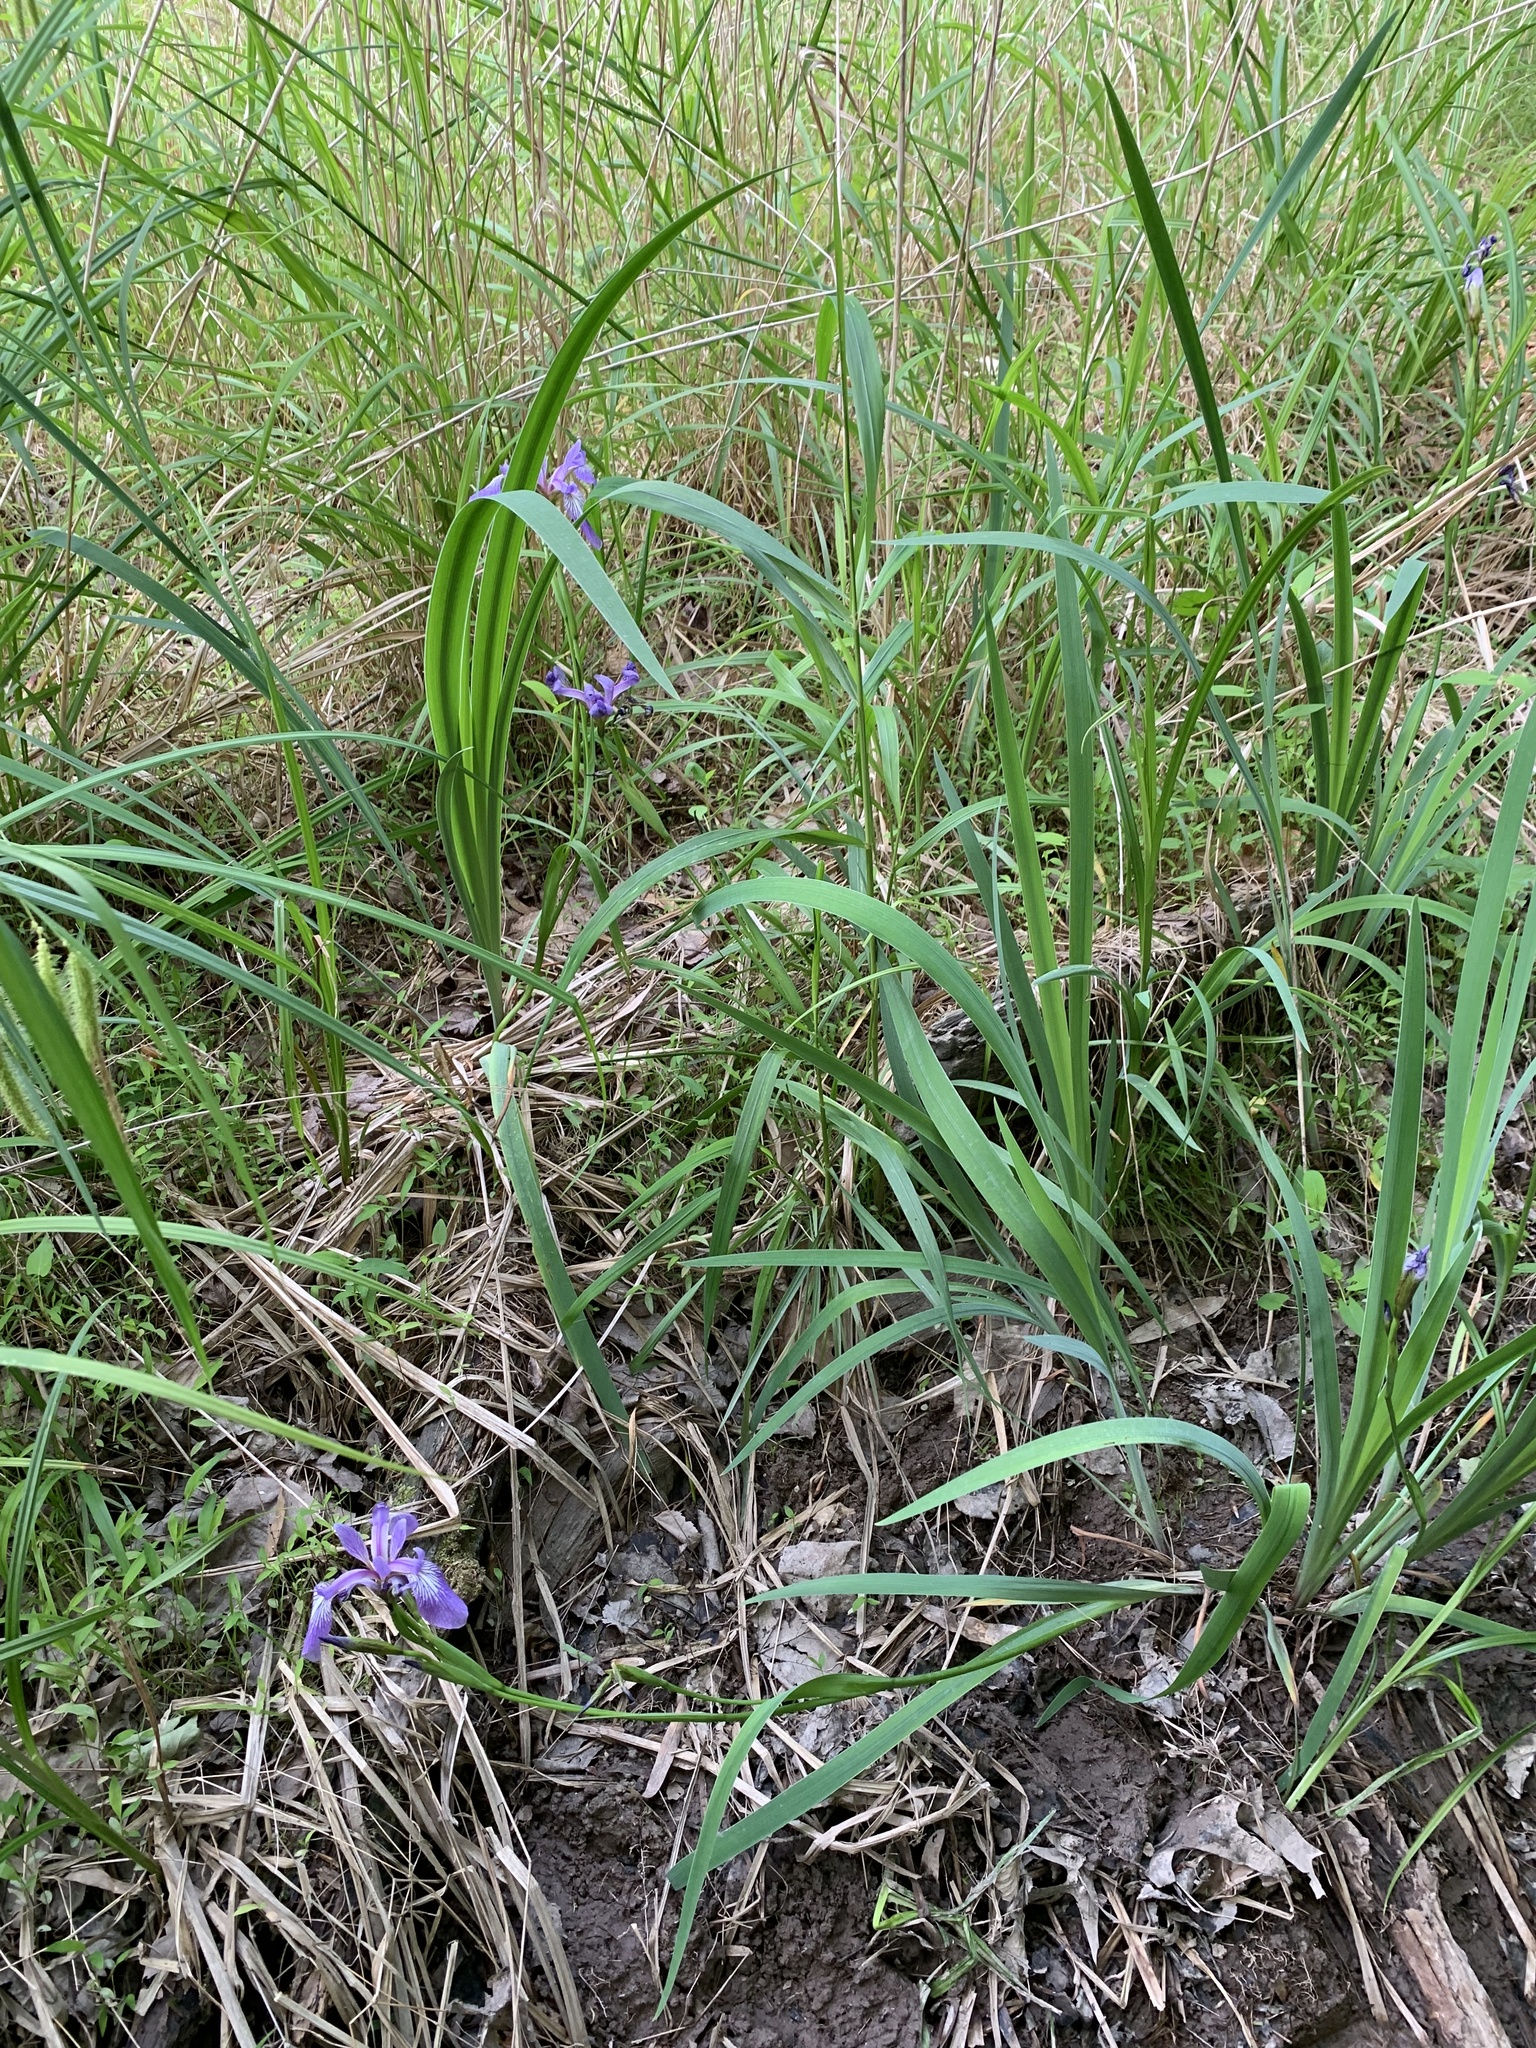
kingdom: Plantae
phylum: Tracheophyta
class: Liliopsida
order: Asparagales
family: Iridaceae
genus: Iris
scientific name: Iris versicolor
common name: Purple iris
